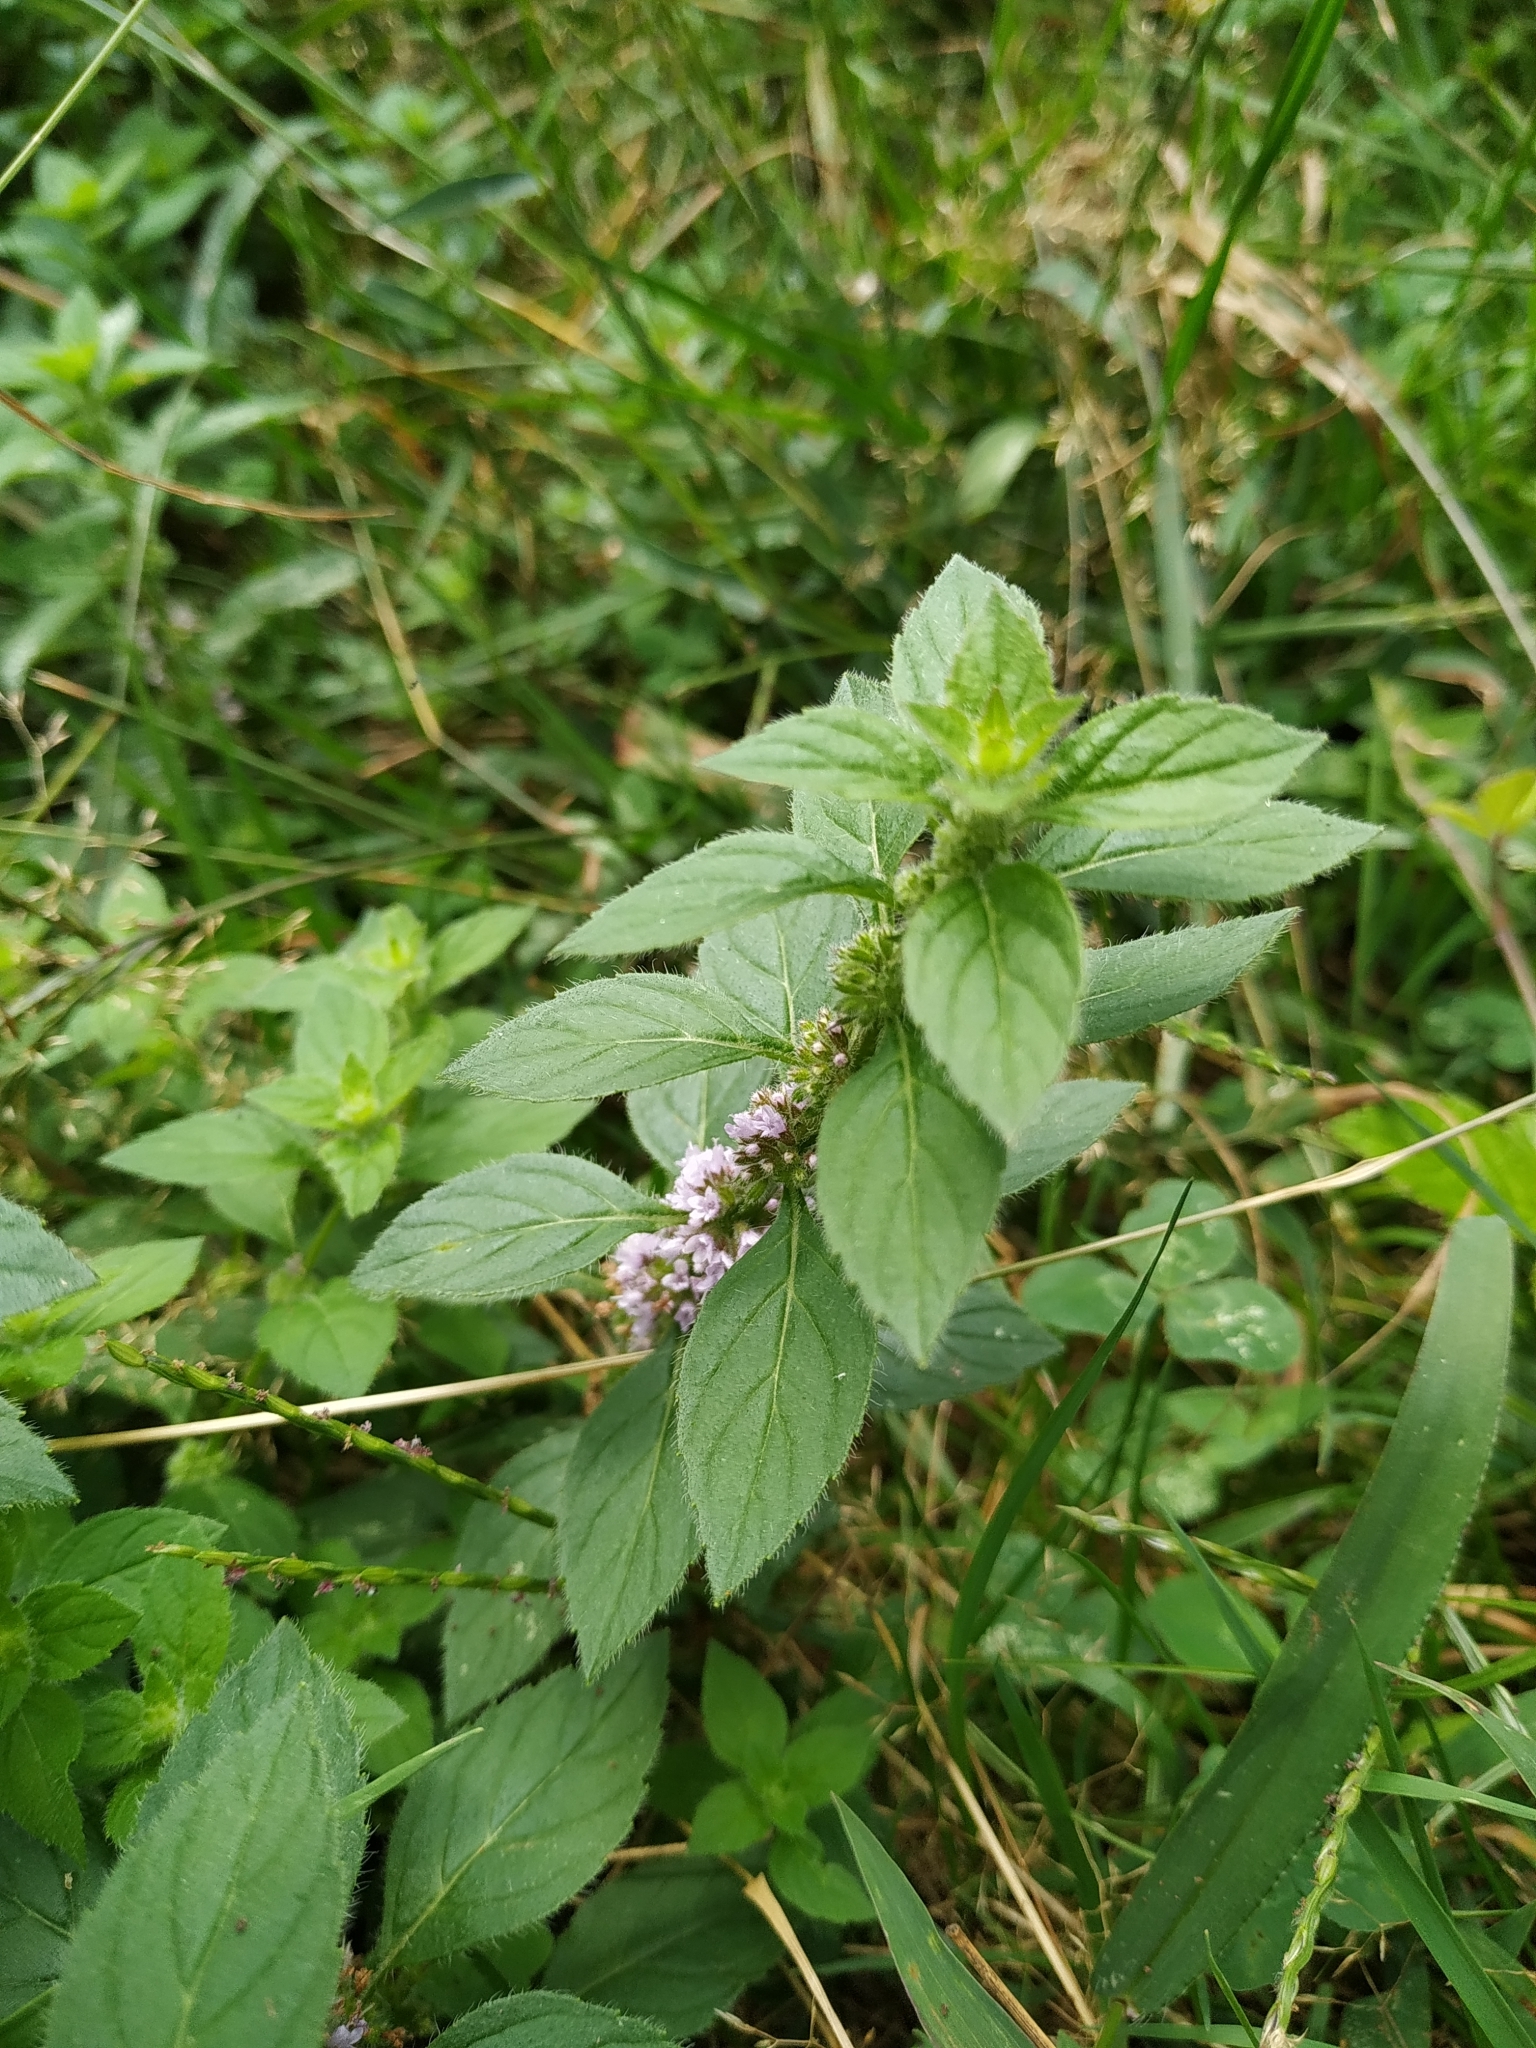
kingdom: Plantae
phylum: Tracheophyta
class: Magnoliopsida
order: Lamiales
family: Lamiaceae
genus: Mentha
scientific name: Mentha arvensis
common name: Corn mint
